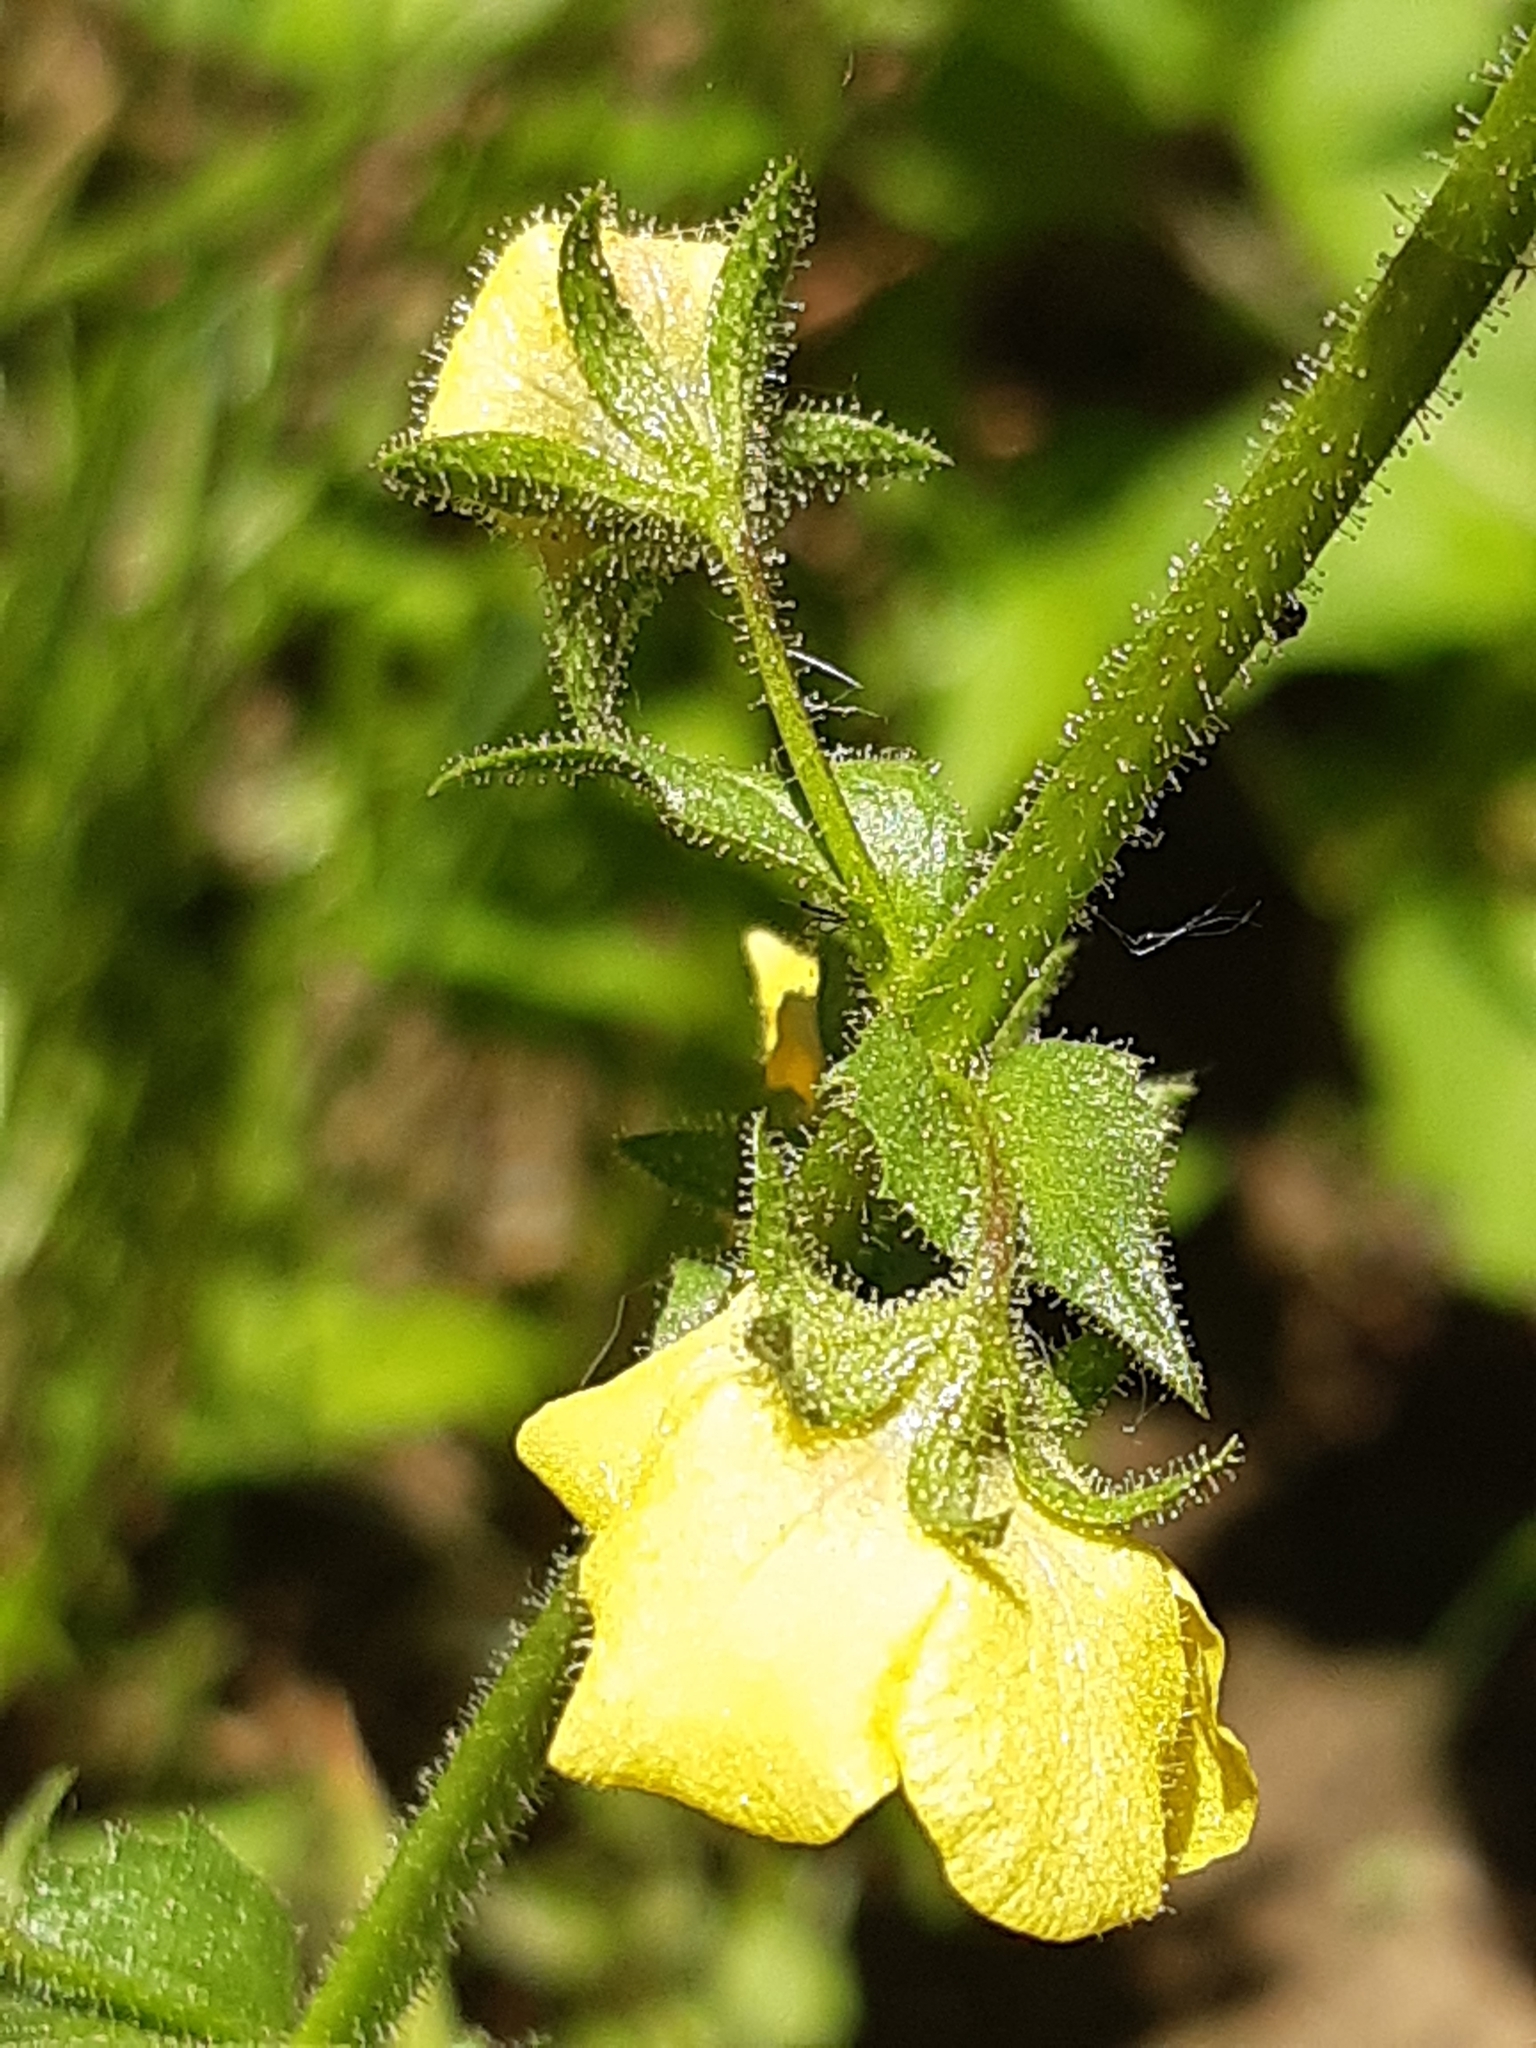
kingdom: Plantae
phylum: Tracheophyta
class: Magnoliopsida
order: Lamiales
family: Scrophulariaceae
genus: Verbascum
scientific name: Verbascum blattaria
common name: Moth mullein
